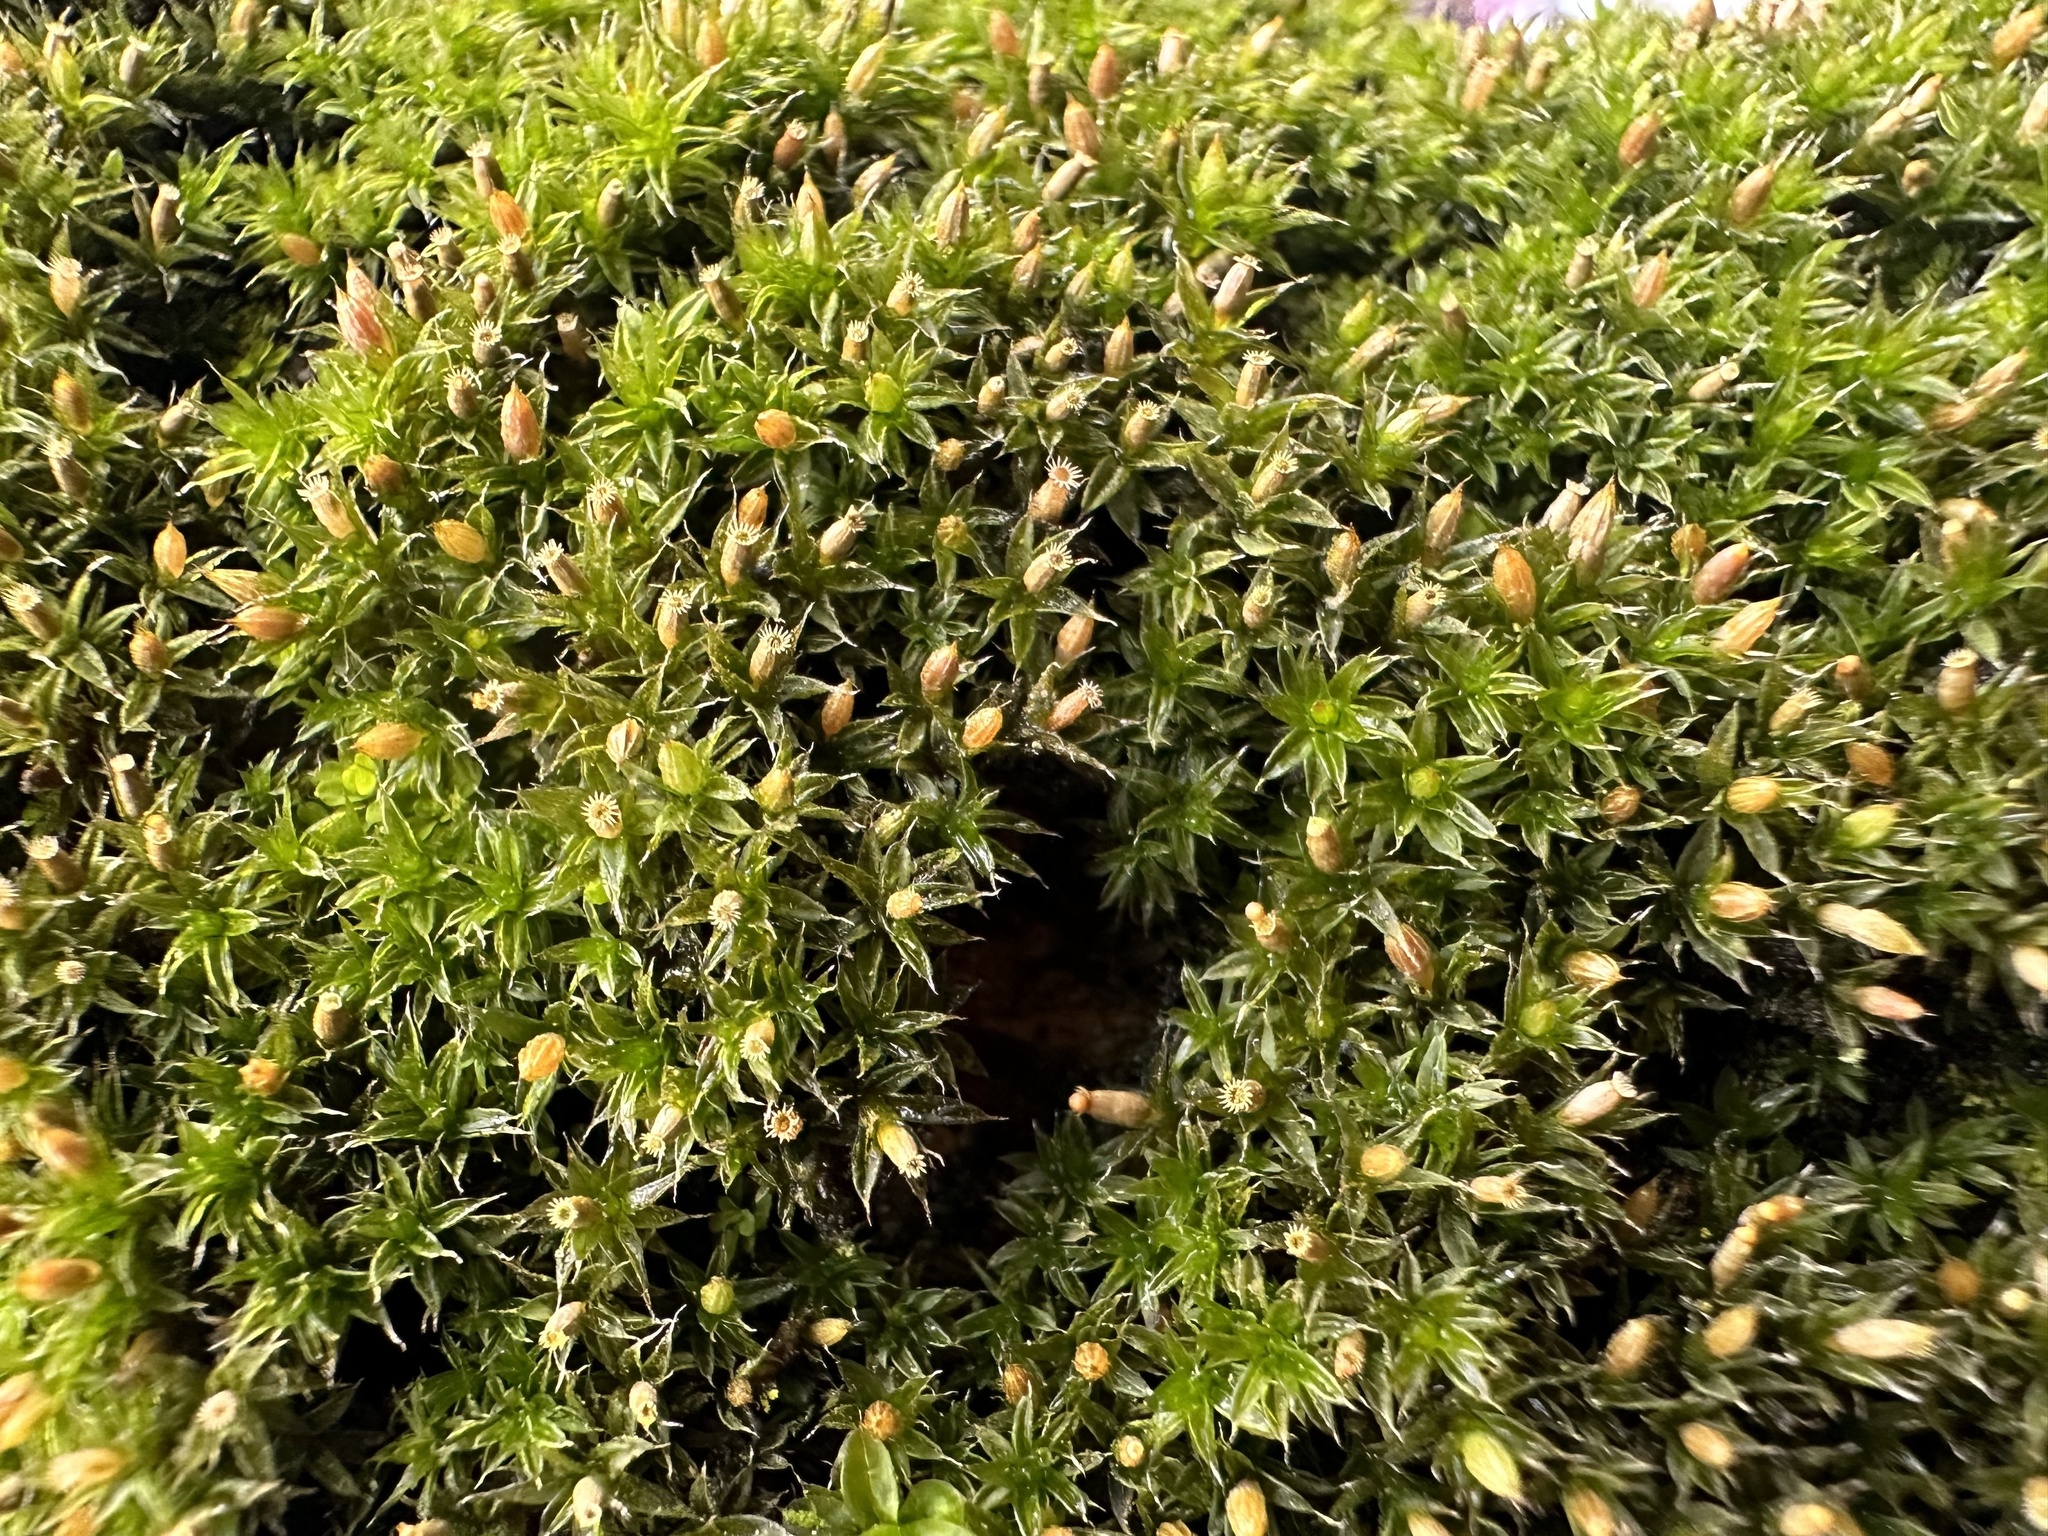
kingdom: Plantae
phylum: Bryophyta
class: Bryopsida
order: Orthotrichales
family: Orthotrichaceae
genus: Orthotrichum
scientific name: Orthotrichum diaphanum
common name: White-tipped bristle-moss
